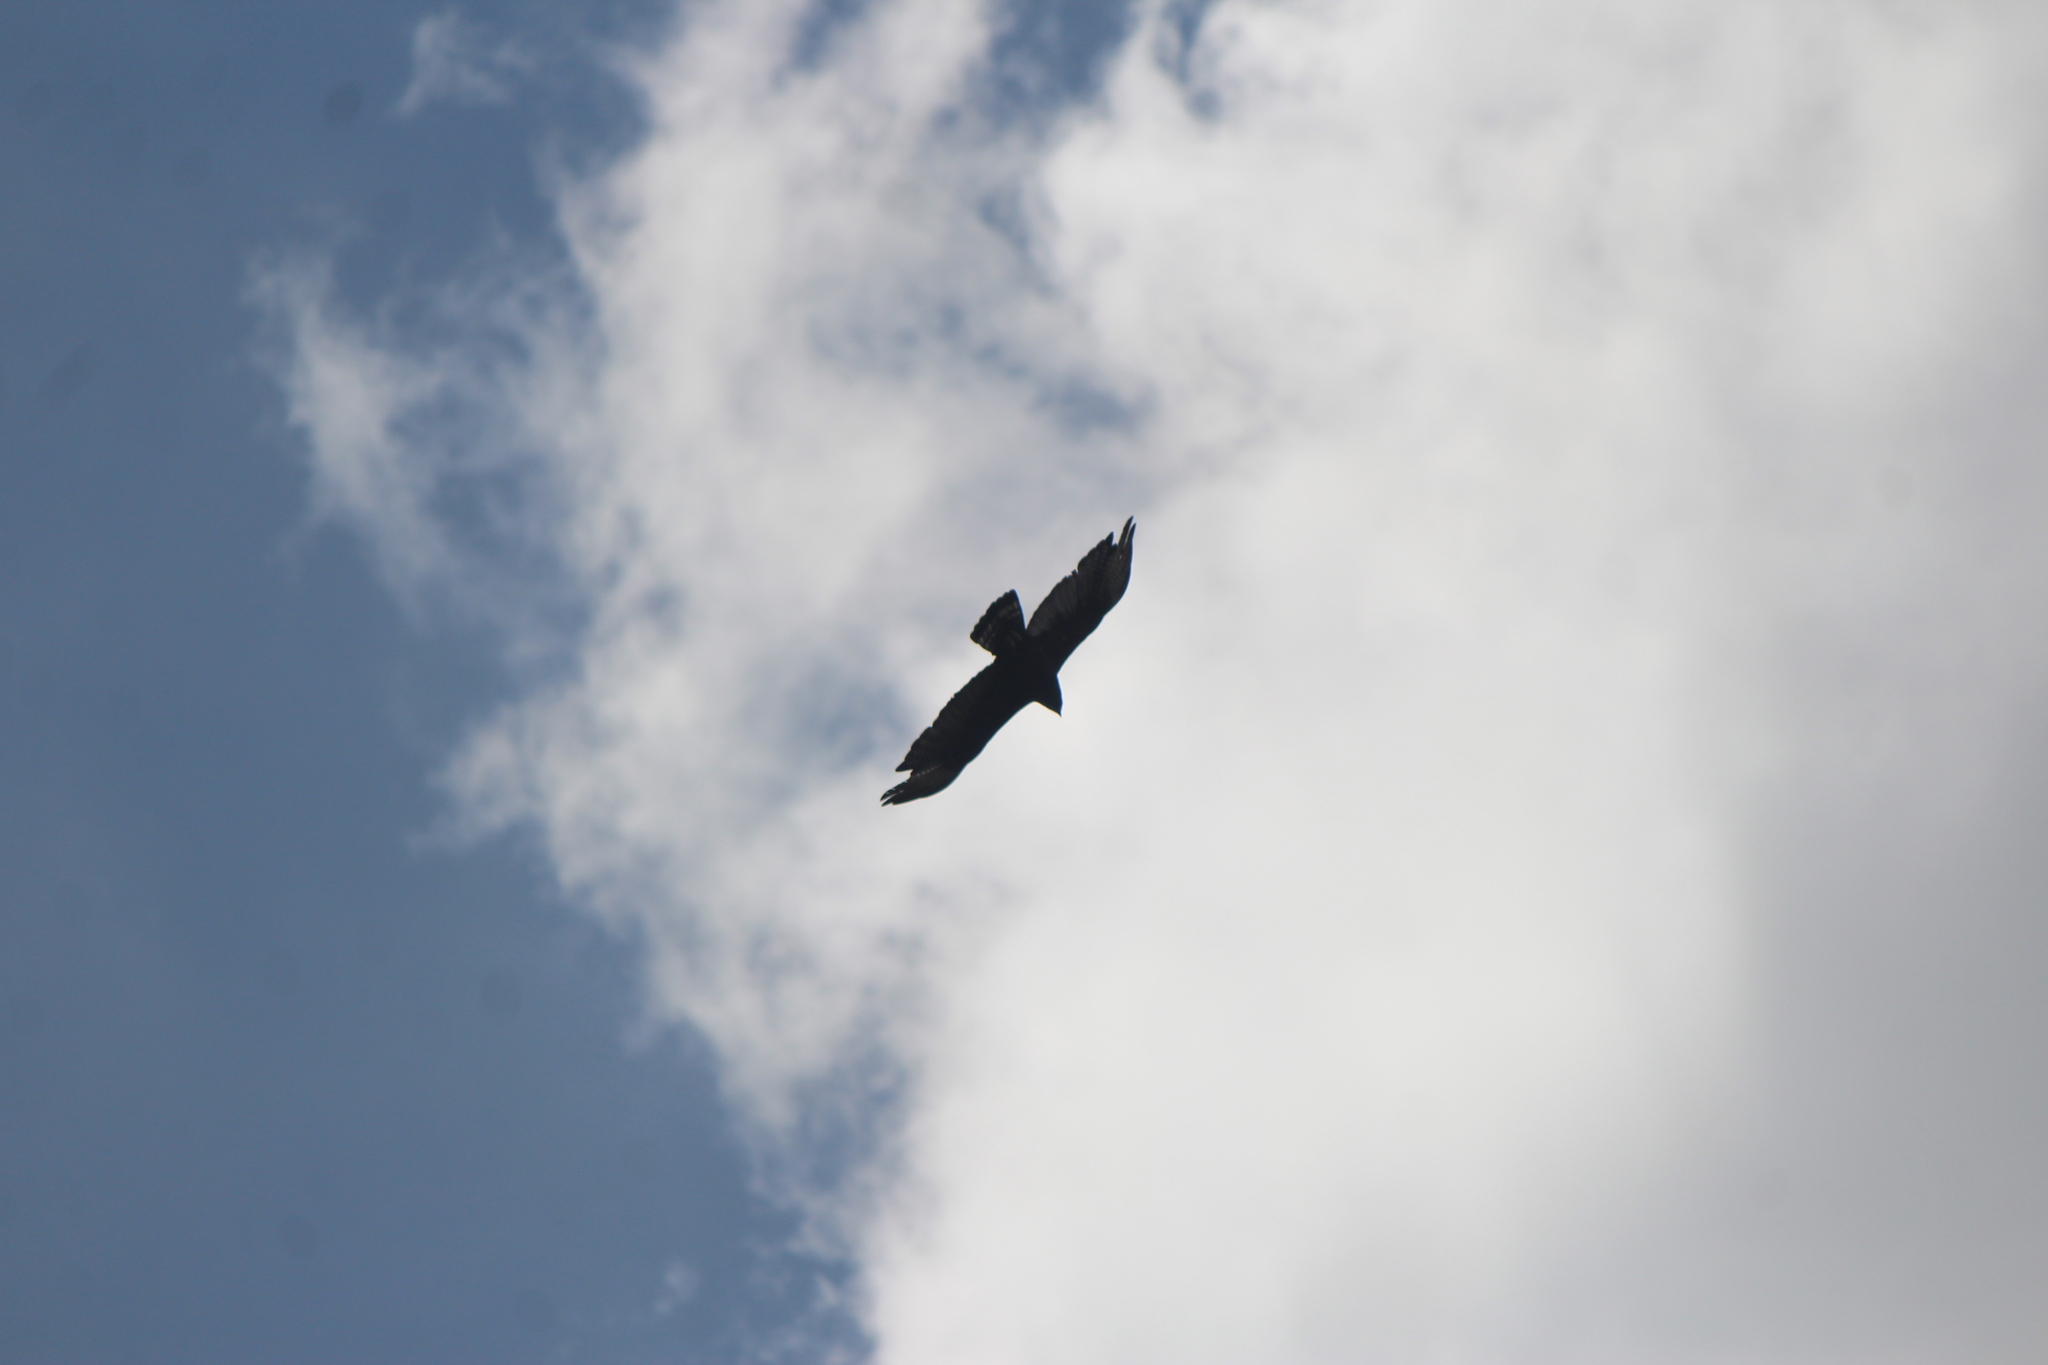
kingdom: Animalia
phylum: Chordata
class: Aves
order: Accipitriformes
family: Accipitridae
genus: Buteo
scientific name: Buteo albonotatus
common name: Zone-tailed hawk
